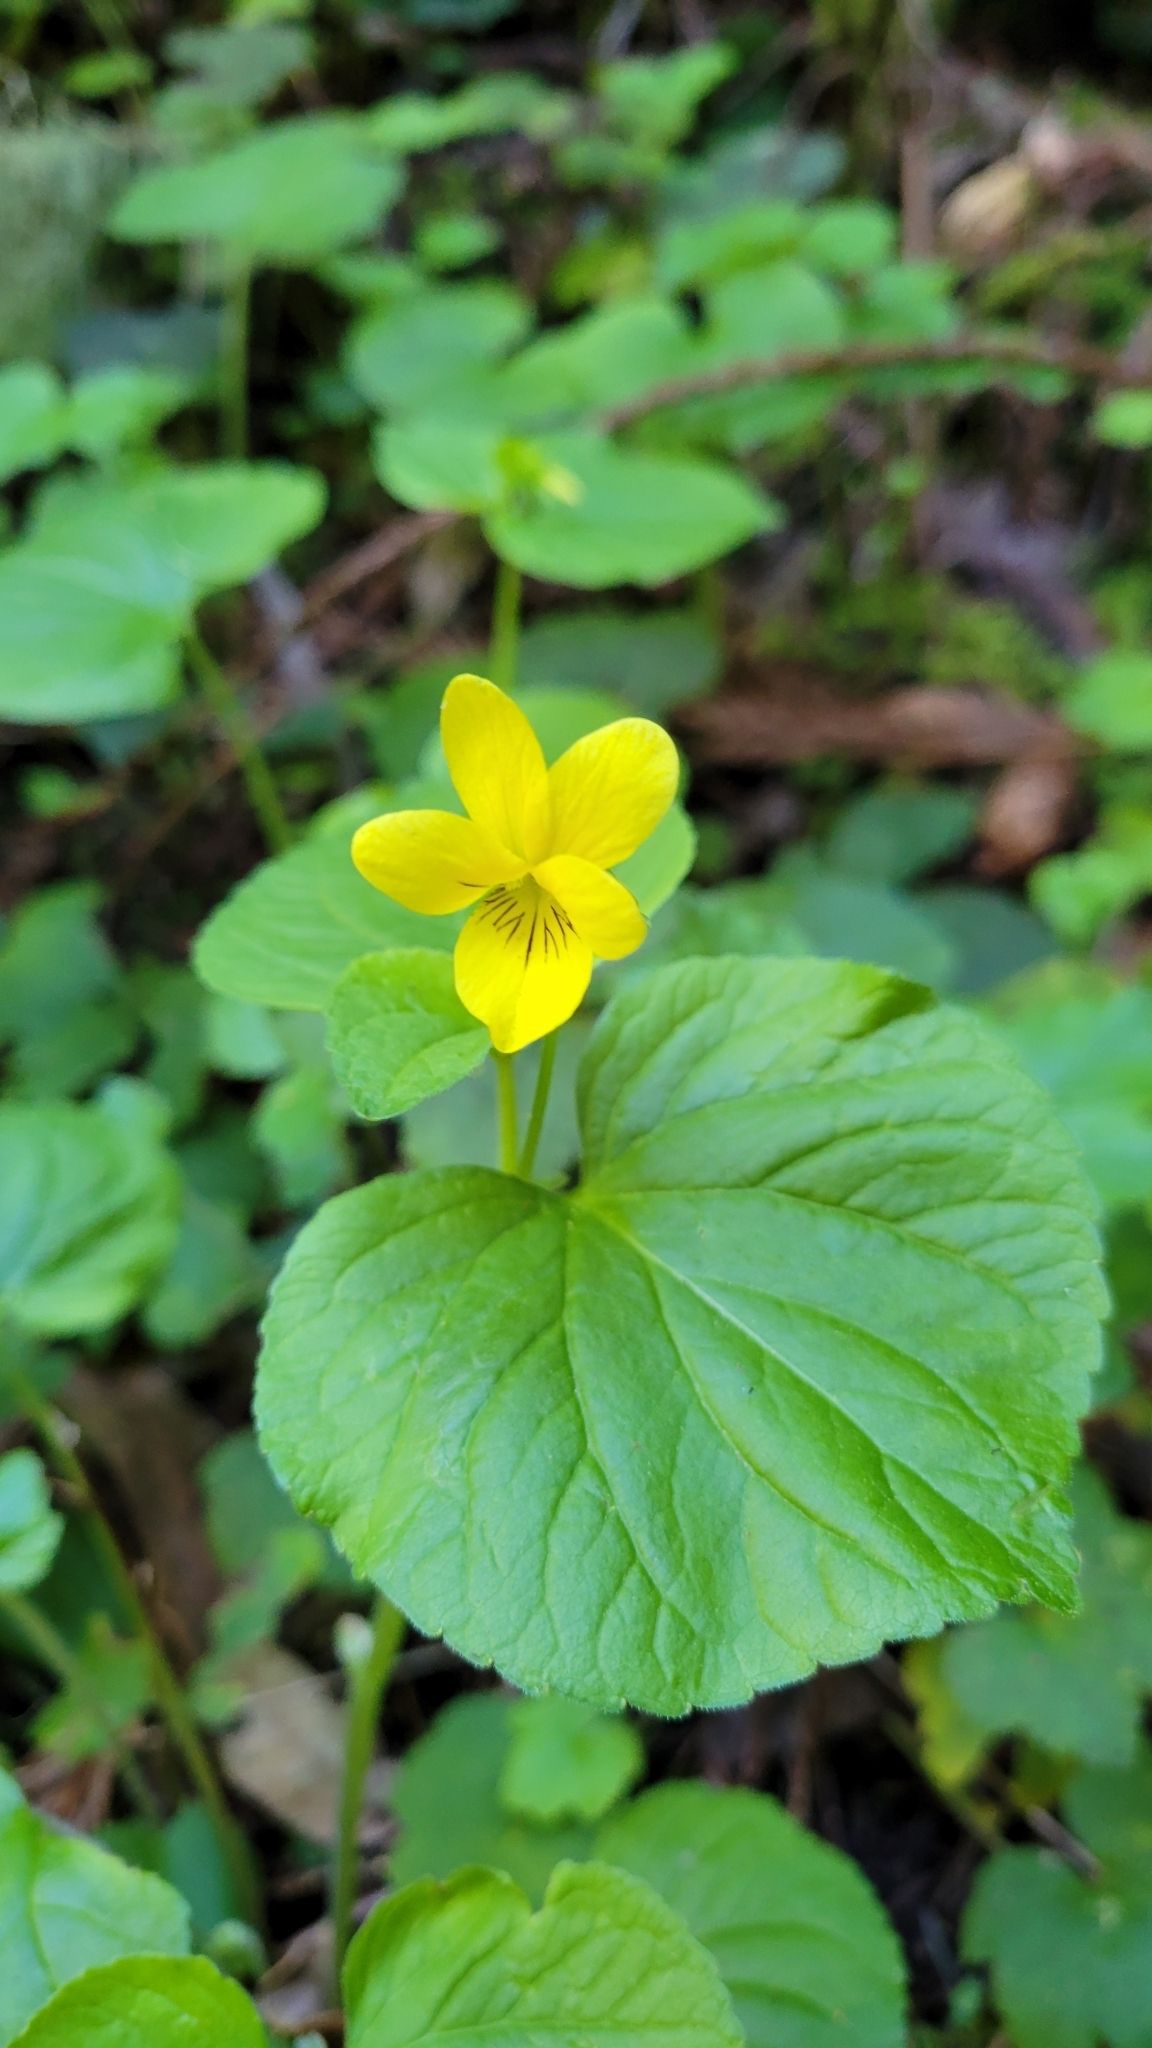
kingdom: Plantae
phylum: Tracheophyta
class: Magnoliopsida
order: Malpighiales
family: Violaceae
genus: Viola
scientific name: Viola glabella
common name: Stream violet
